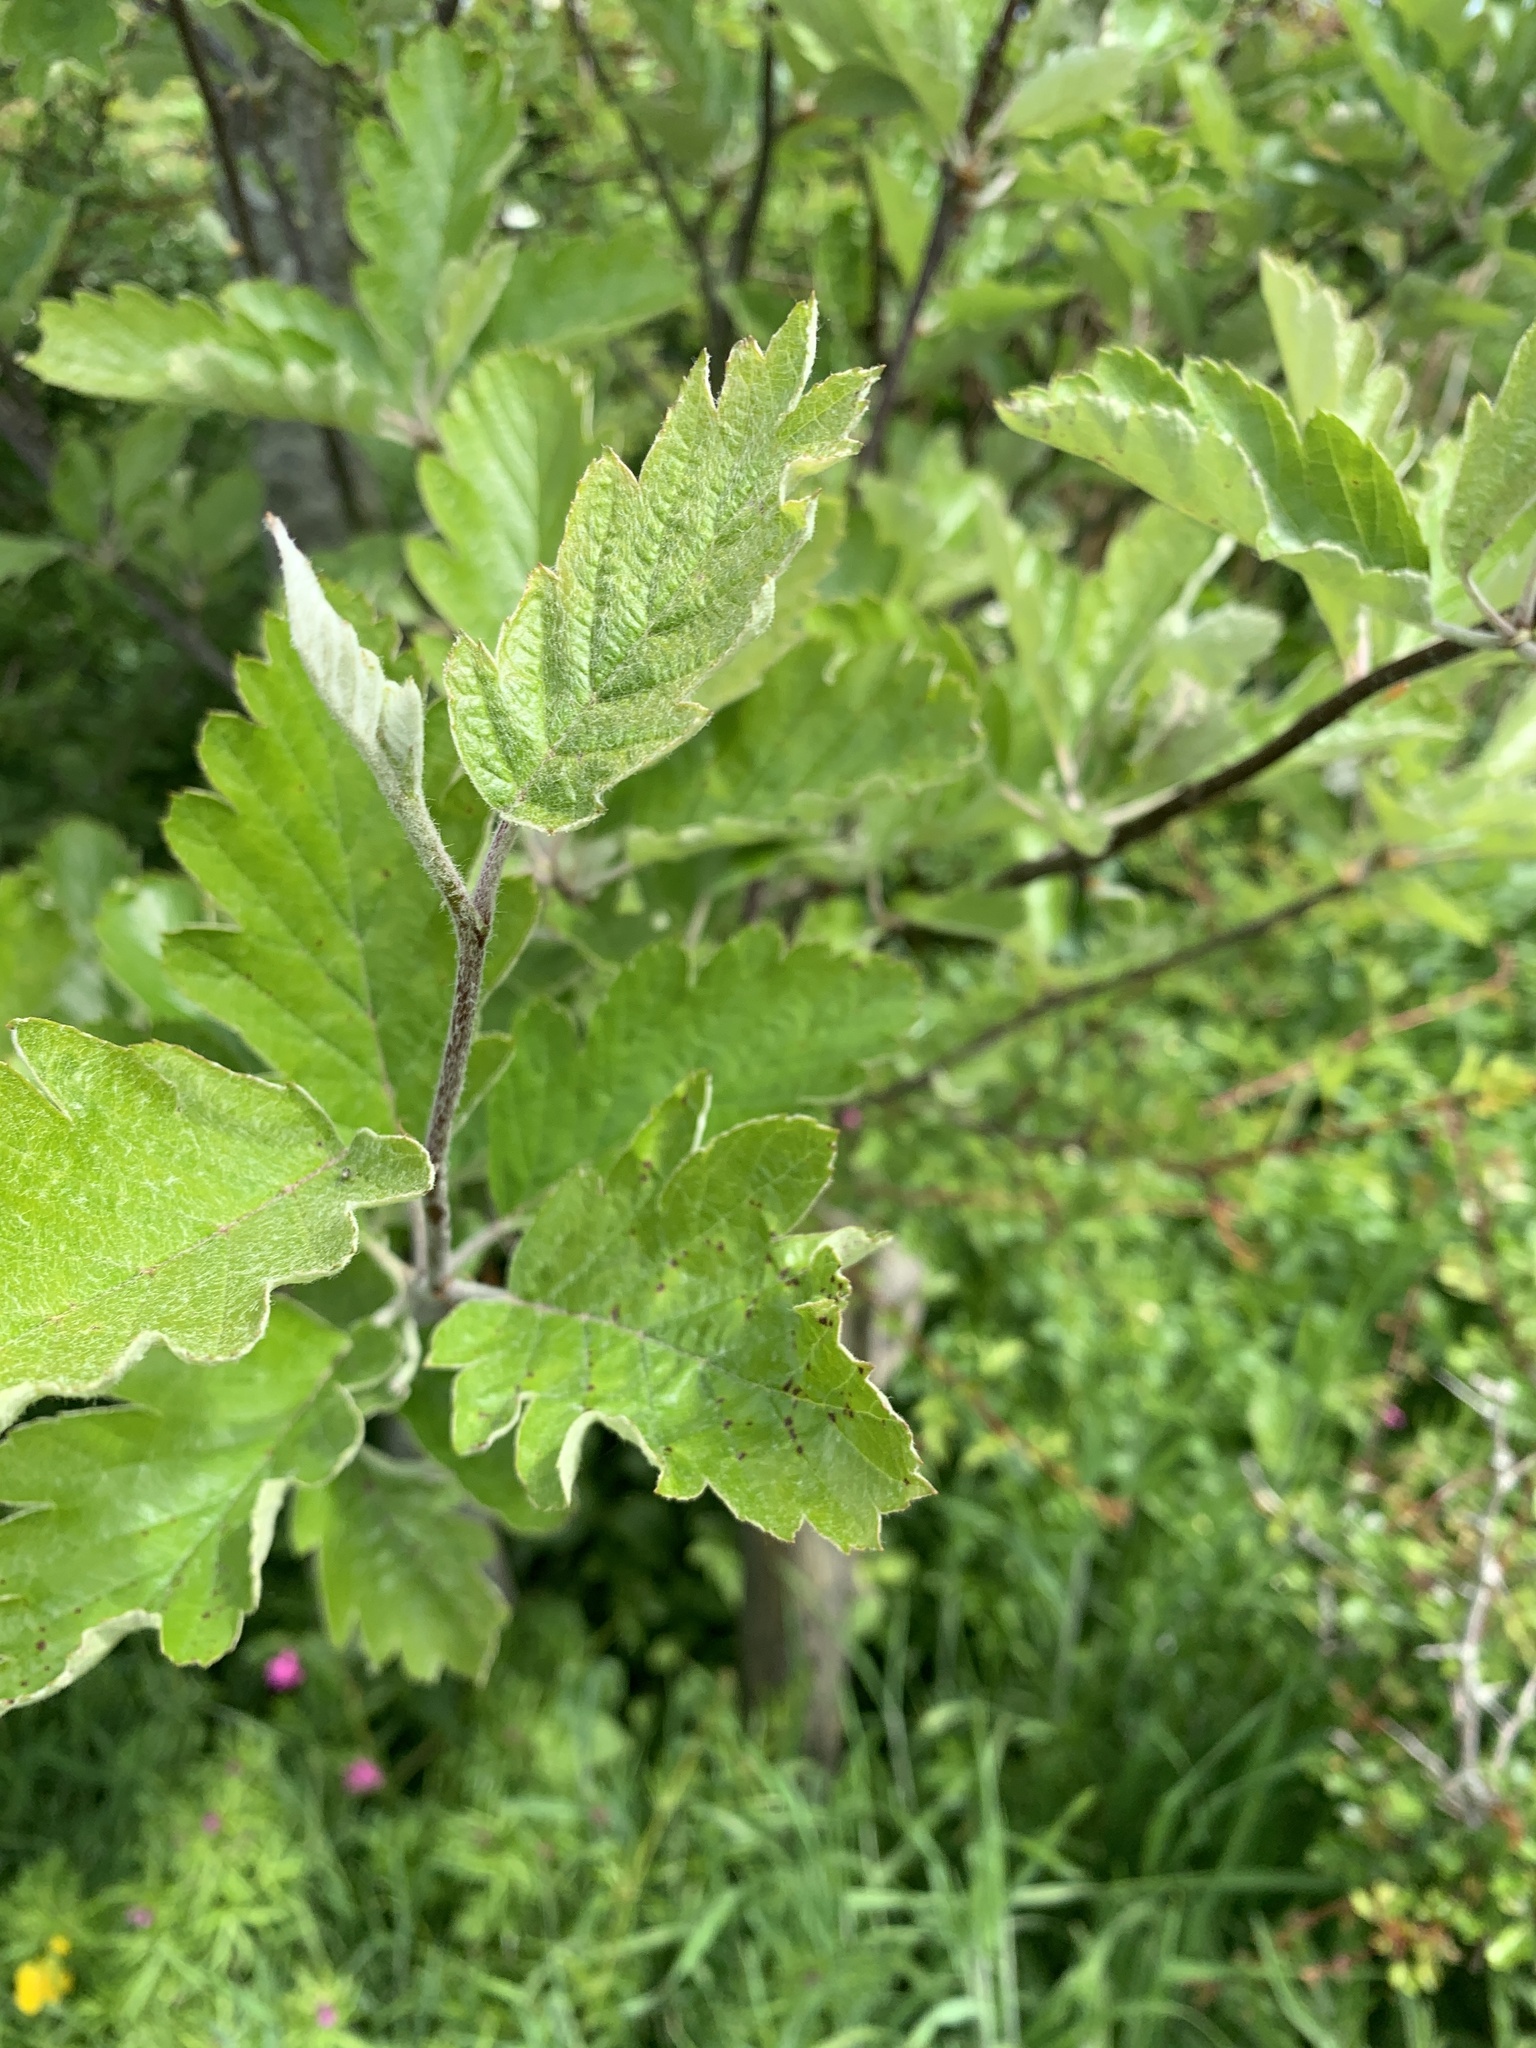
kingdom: Plantae
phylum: Tracheophyta
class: Magnoliopsida
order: Rosales
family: Rosaceae
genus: Scandosorbus
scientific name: Scandosorbus intermedia
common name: Swedish whitebeam
